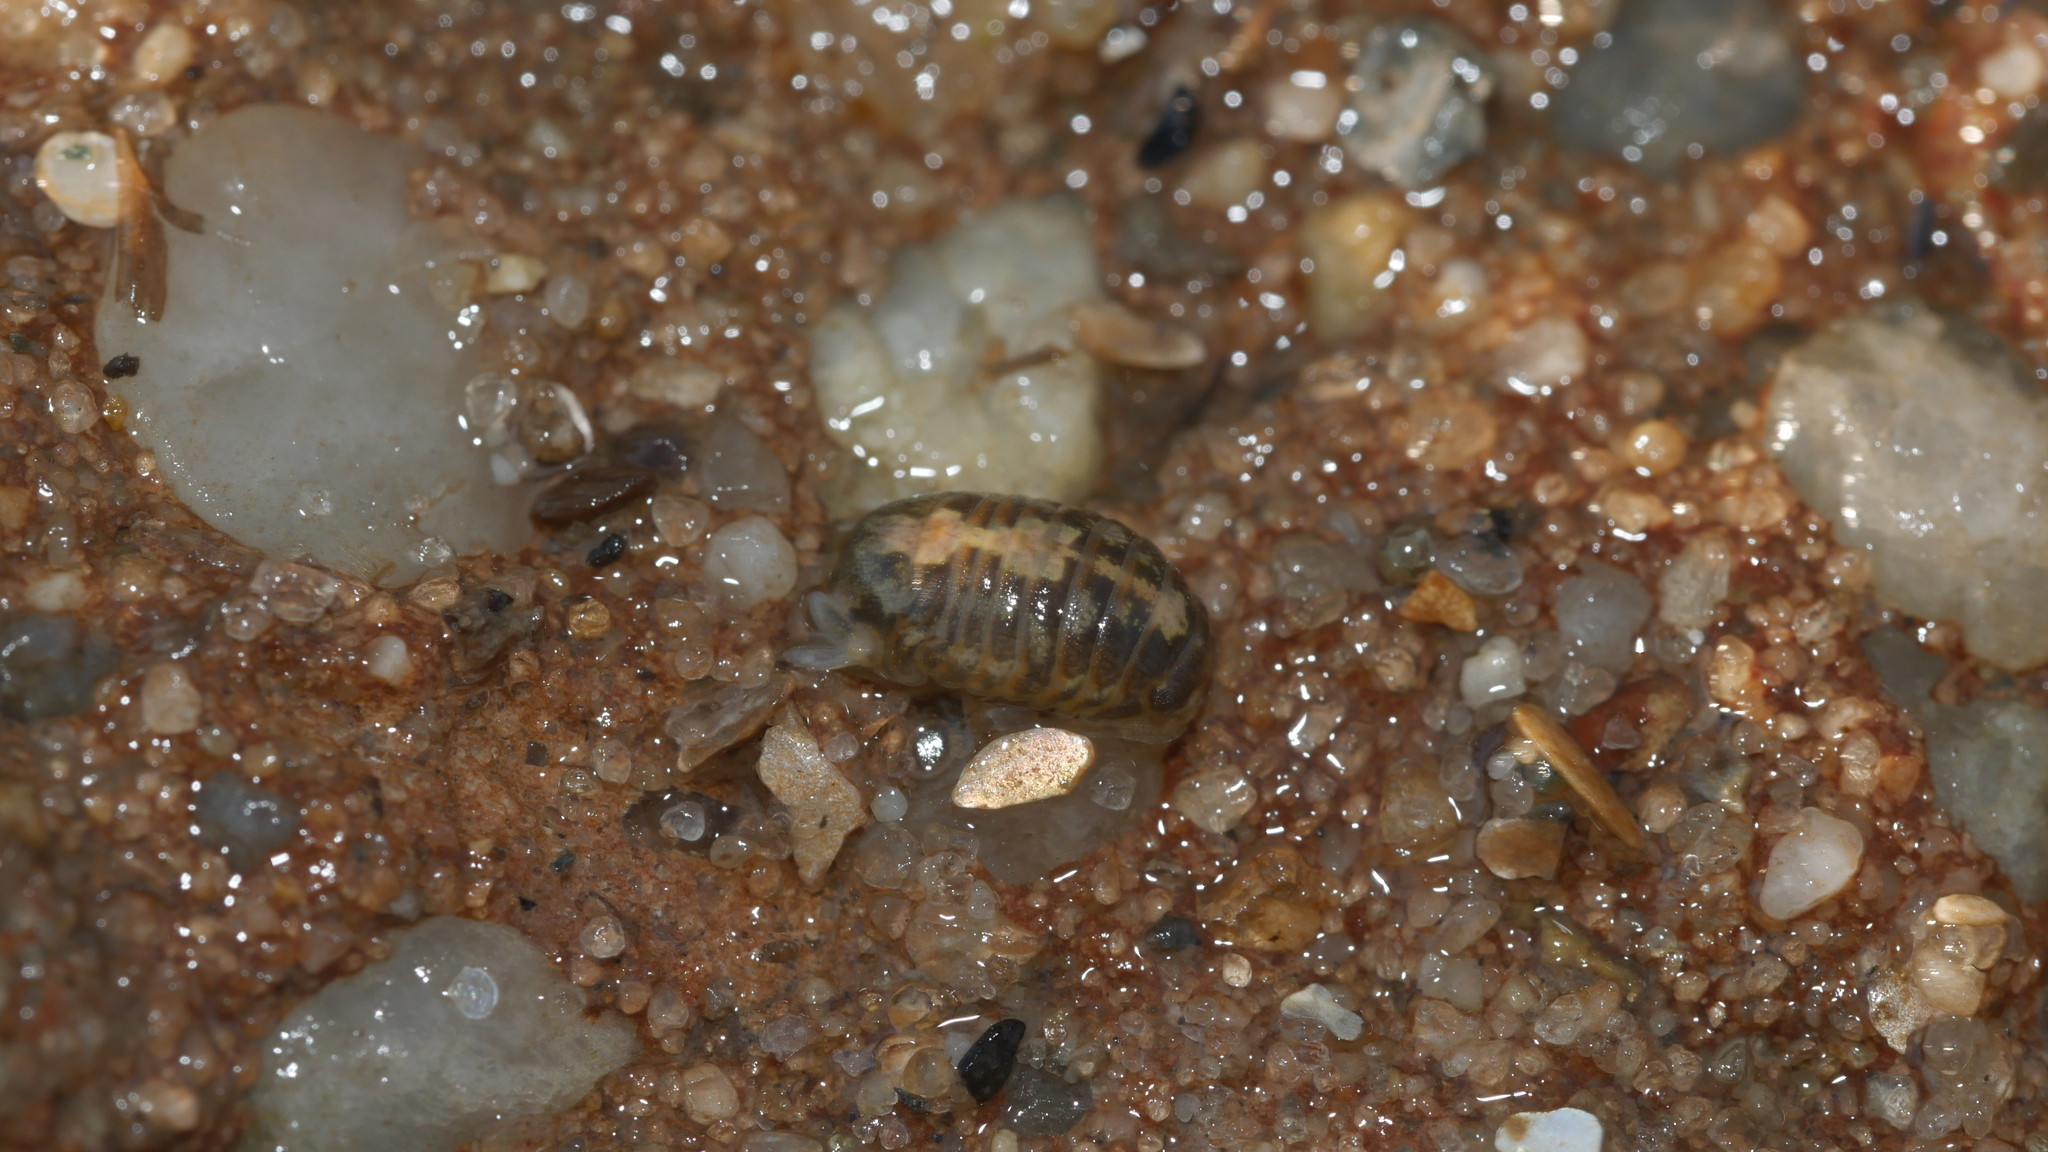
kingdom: Animalia
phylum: Arthropoda
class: Malacostraca
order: Isopoda
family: Sphaeromatidae
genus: Sphaeroma
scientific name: Sphaeroma quadridentatum
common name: Sea pill bug
